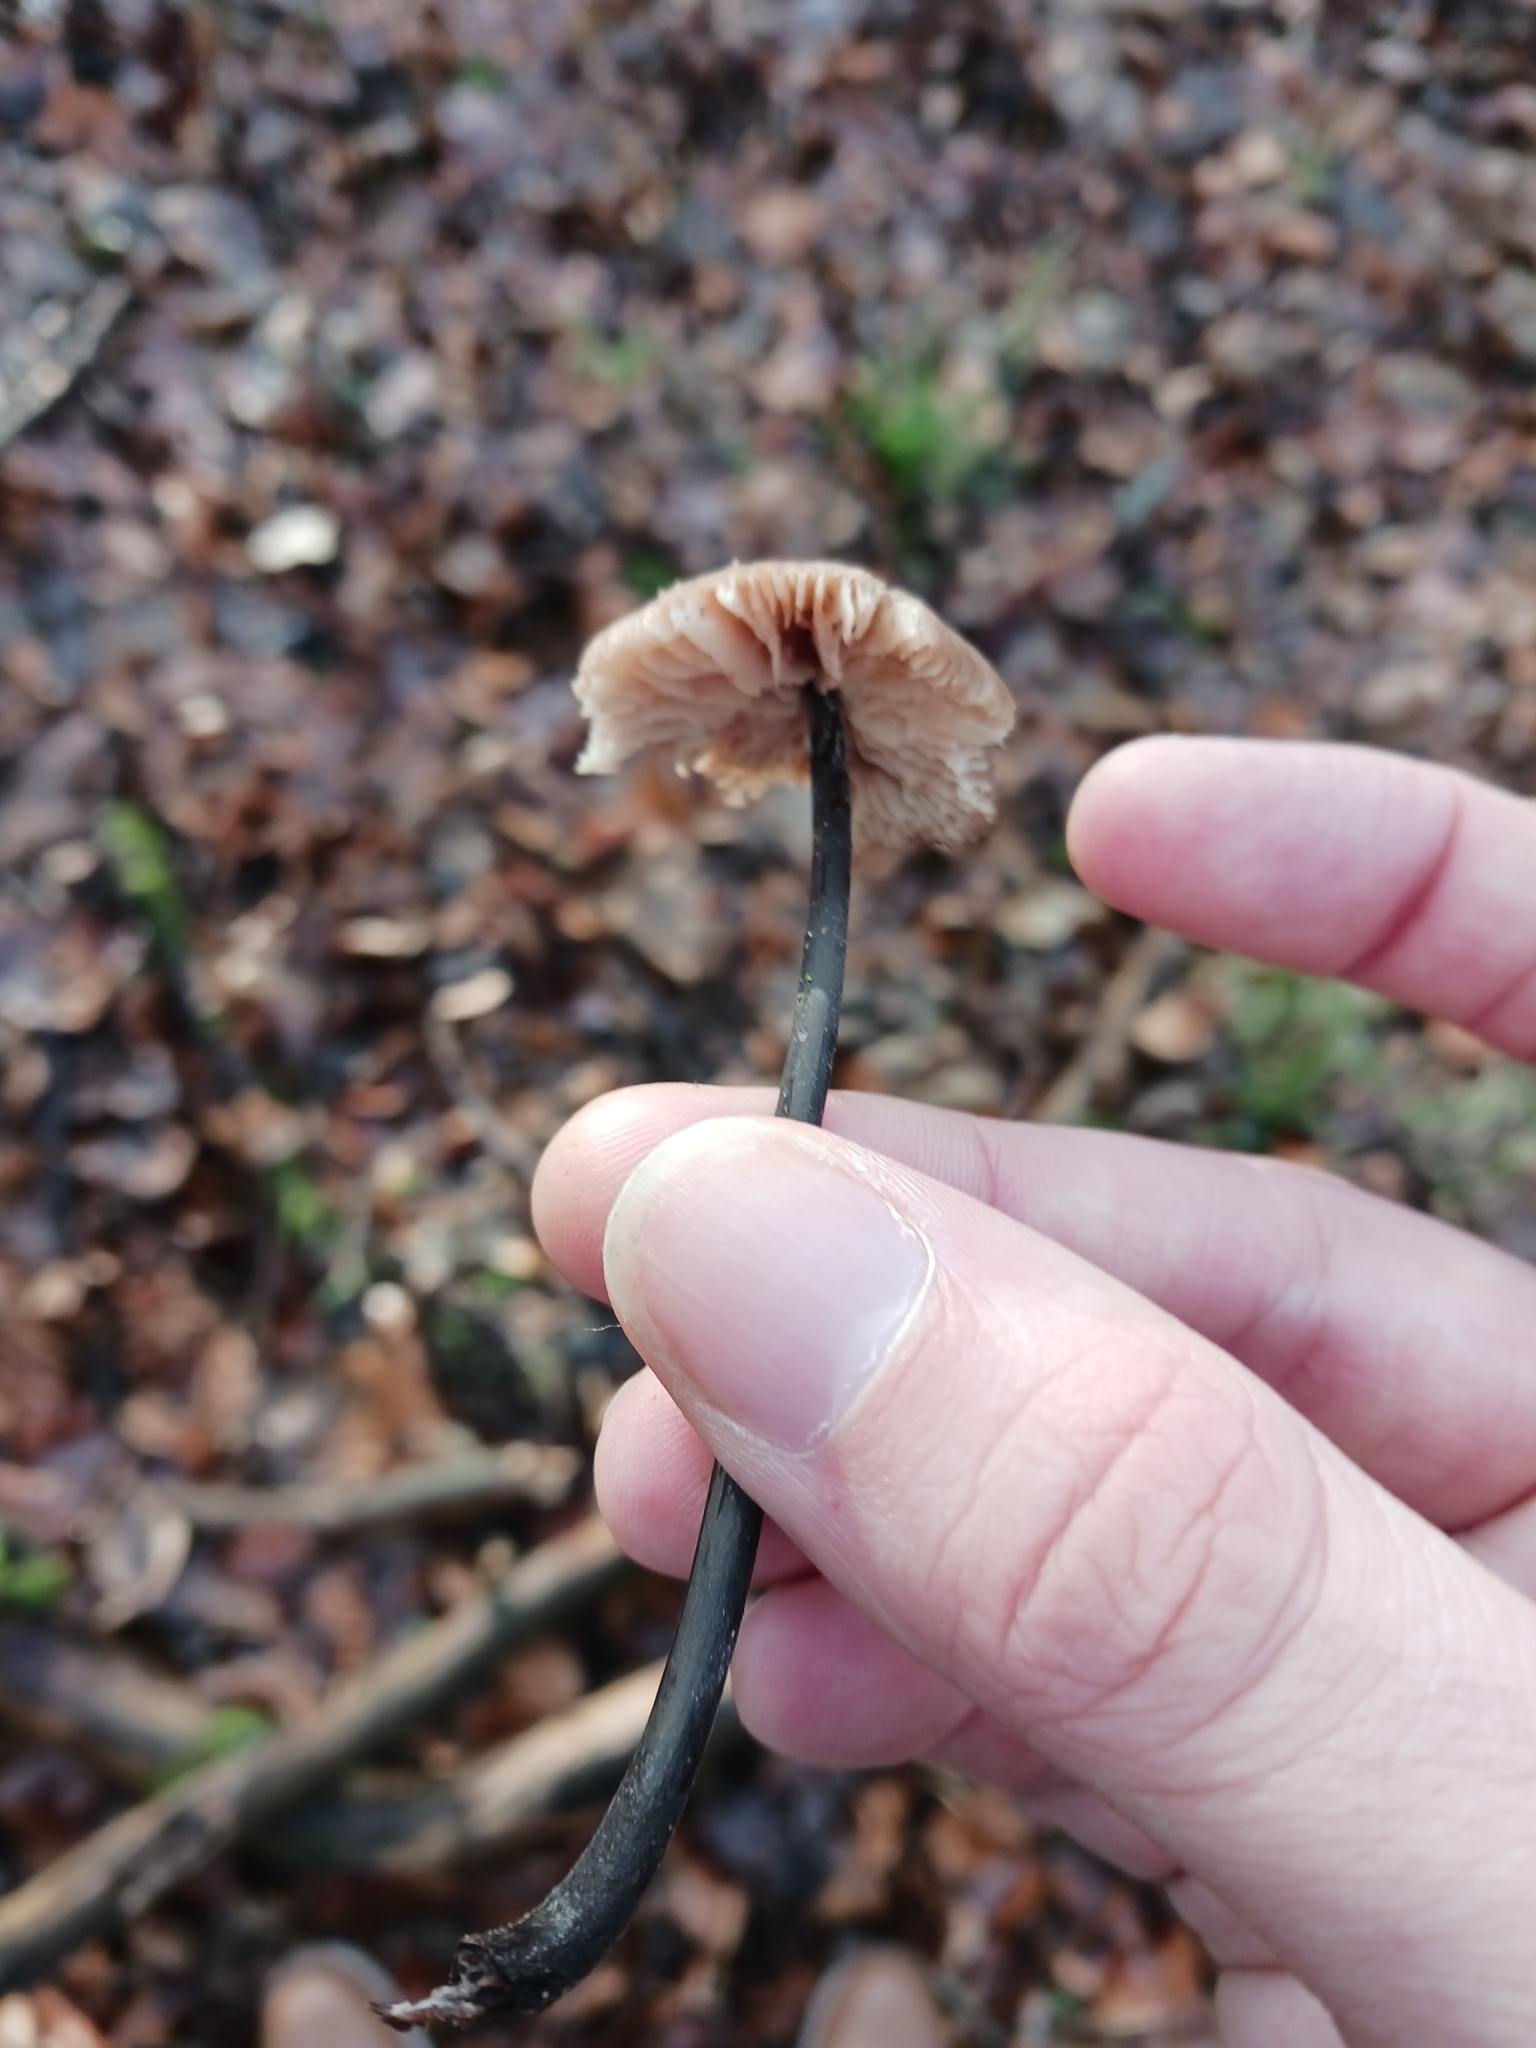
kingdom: Fungi
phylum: Basidiomycota
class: Agaricomycetes
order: Agaricales
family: Omphalotaceae
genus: Mycetinis
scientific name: Mycetinis alliaceus
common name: Garlic parachute
